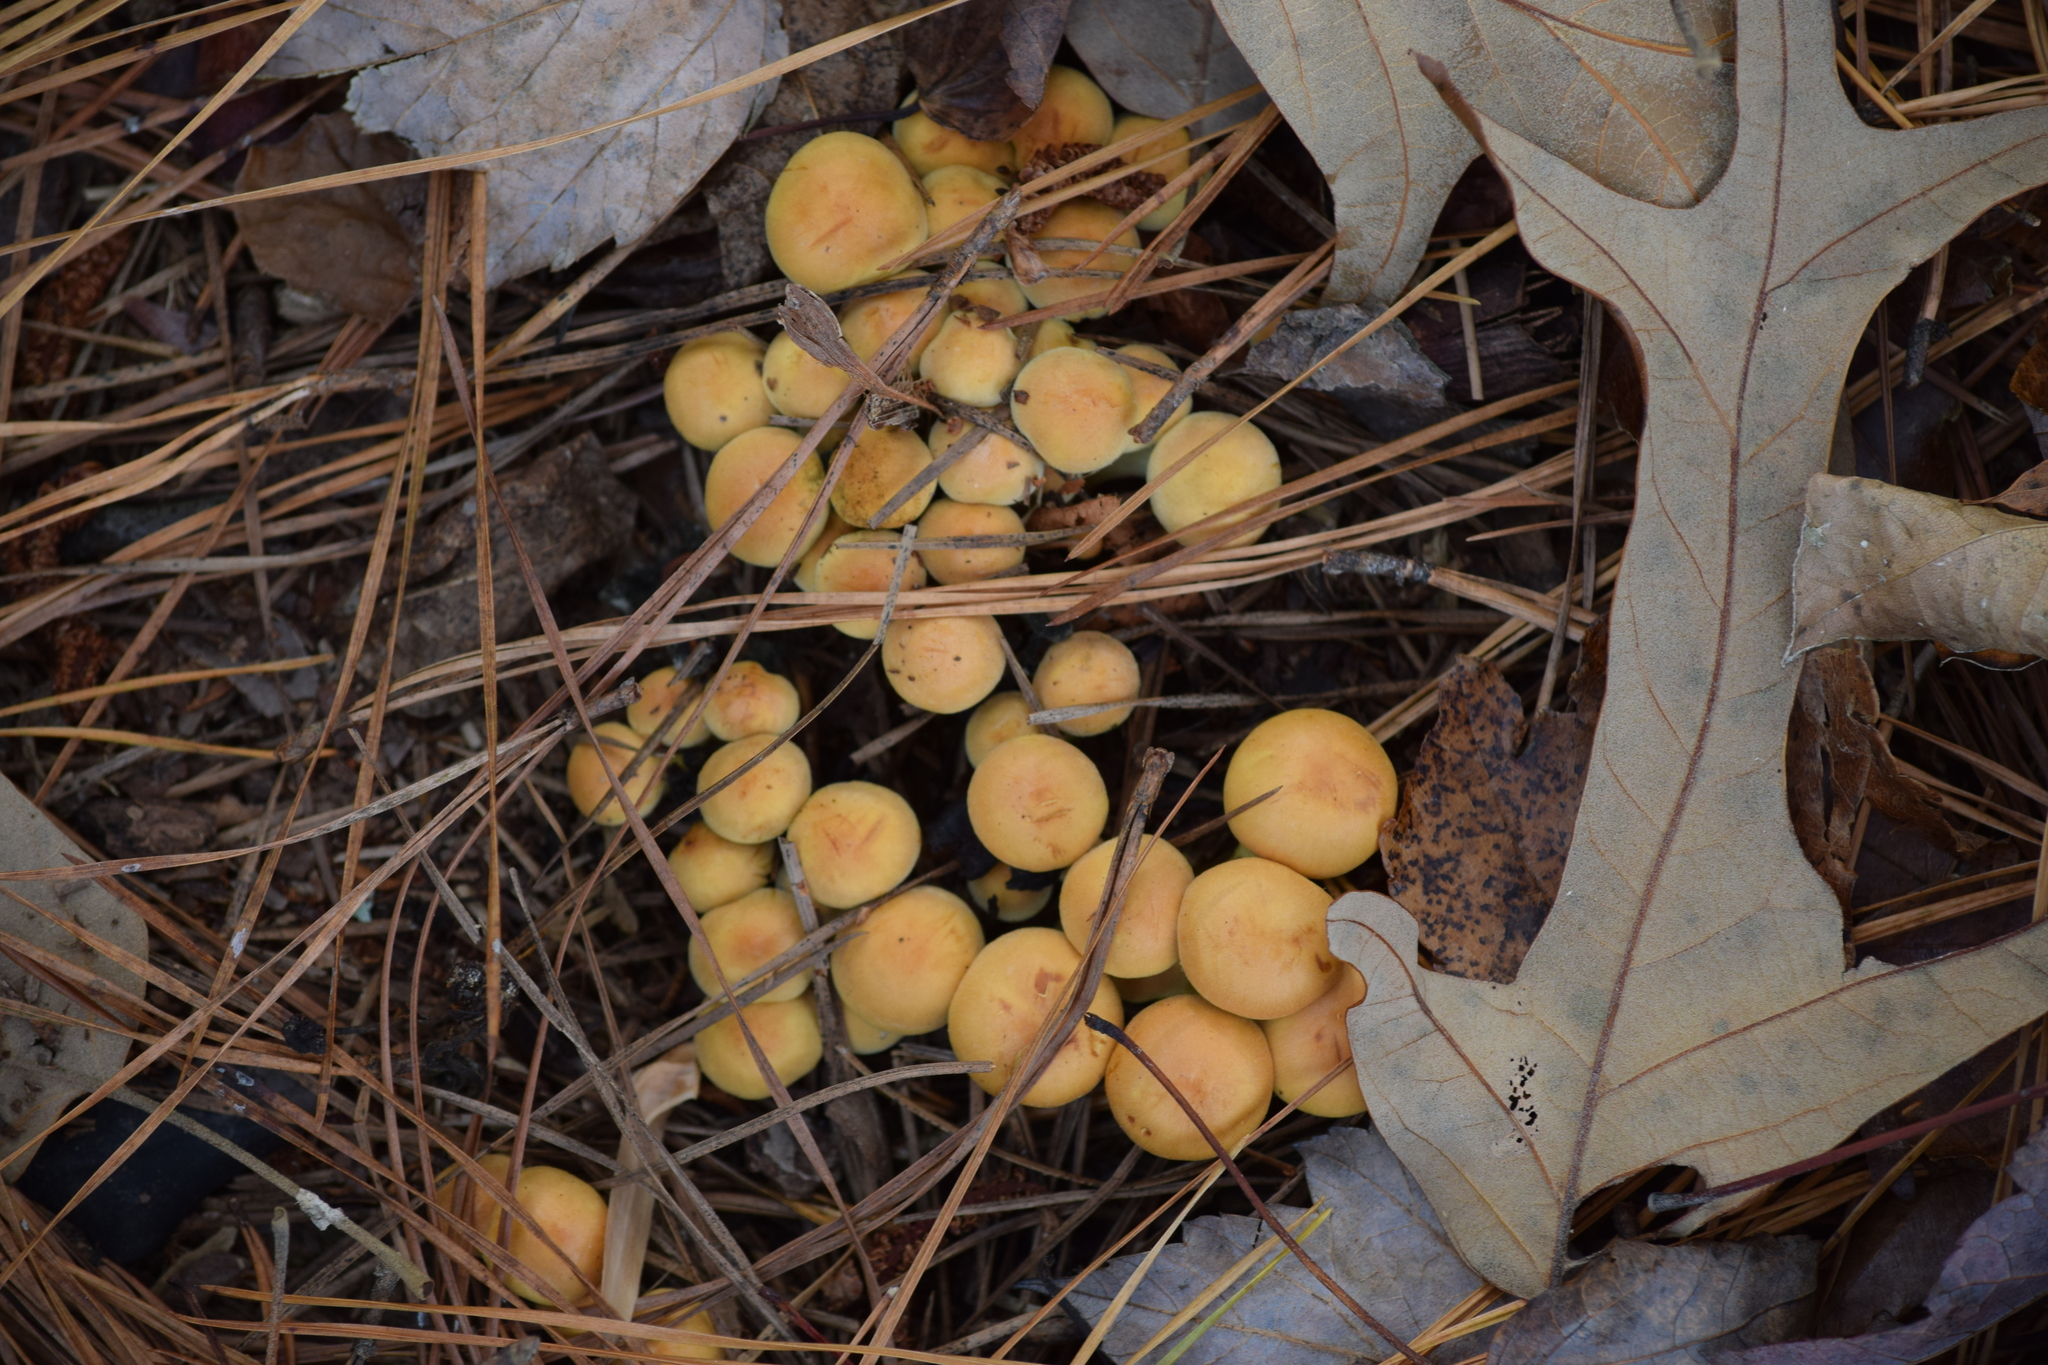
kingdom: Fungi
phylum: Basidiomycota
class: Agaricomycetes
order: Agaricales
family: Strophariaceae
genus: Hypholoma
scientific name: Hypholoma fasciculare
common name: Sulphur tuft
